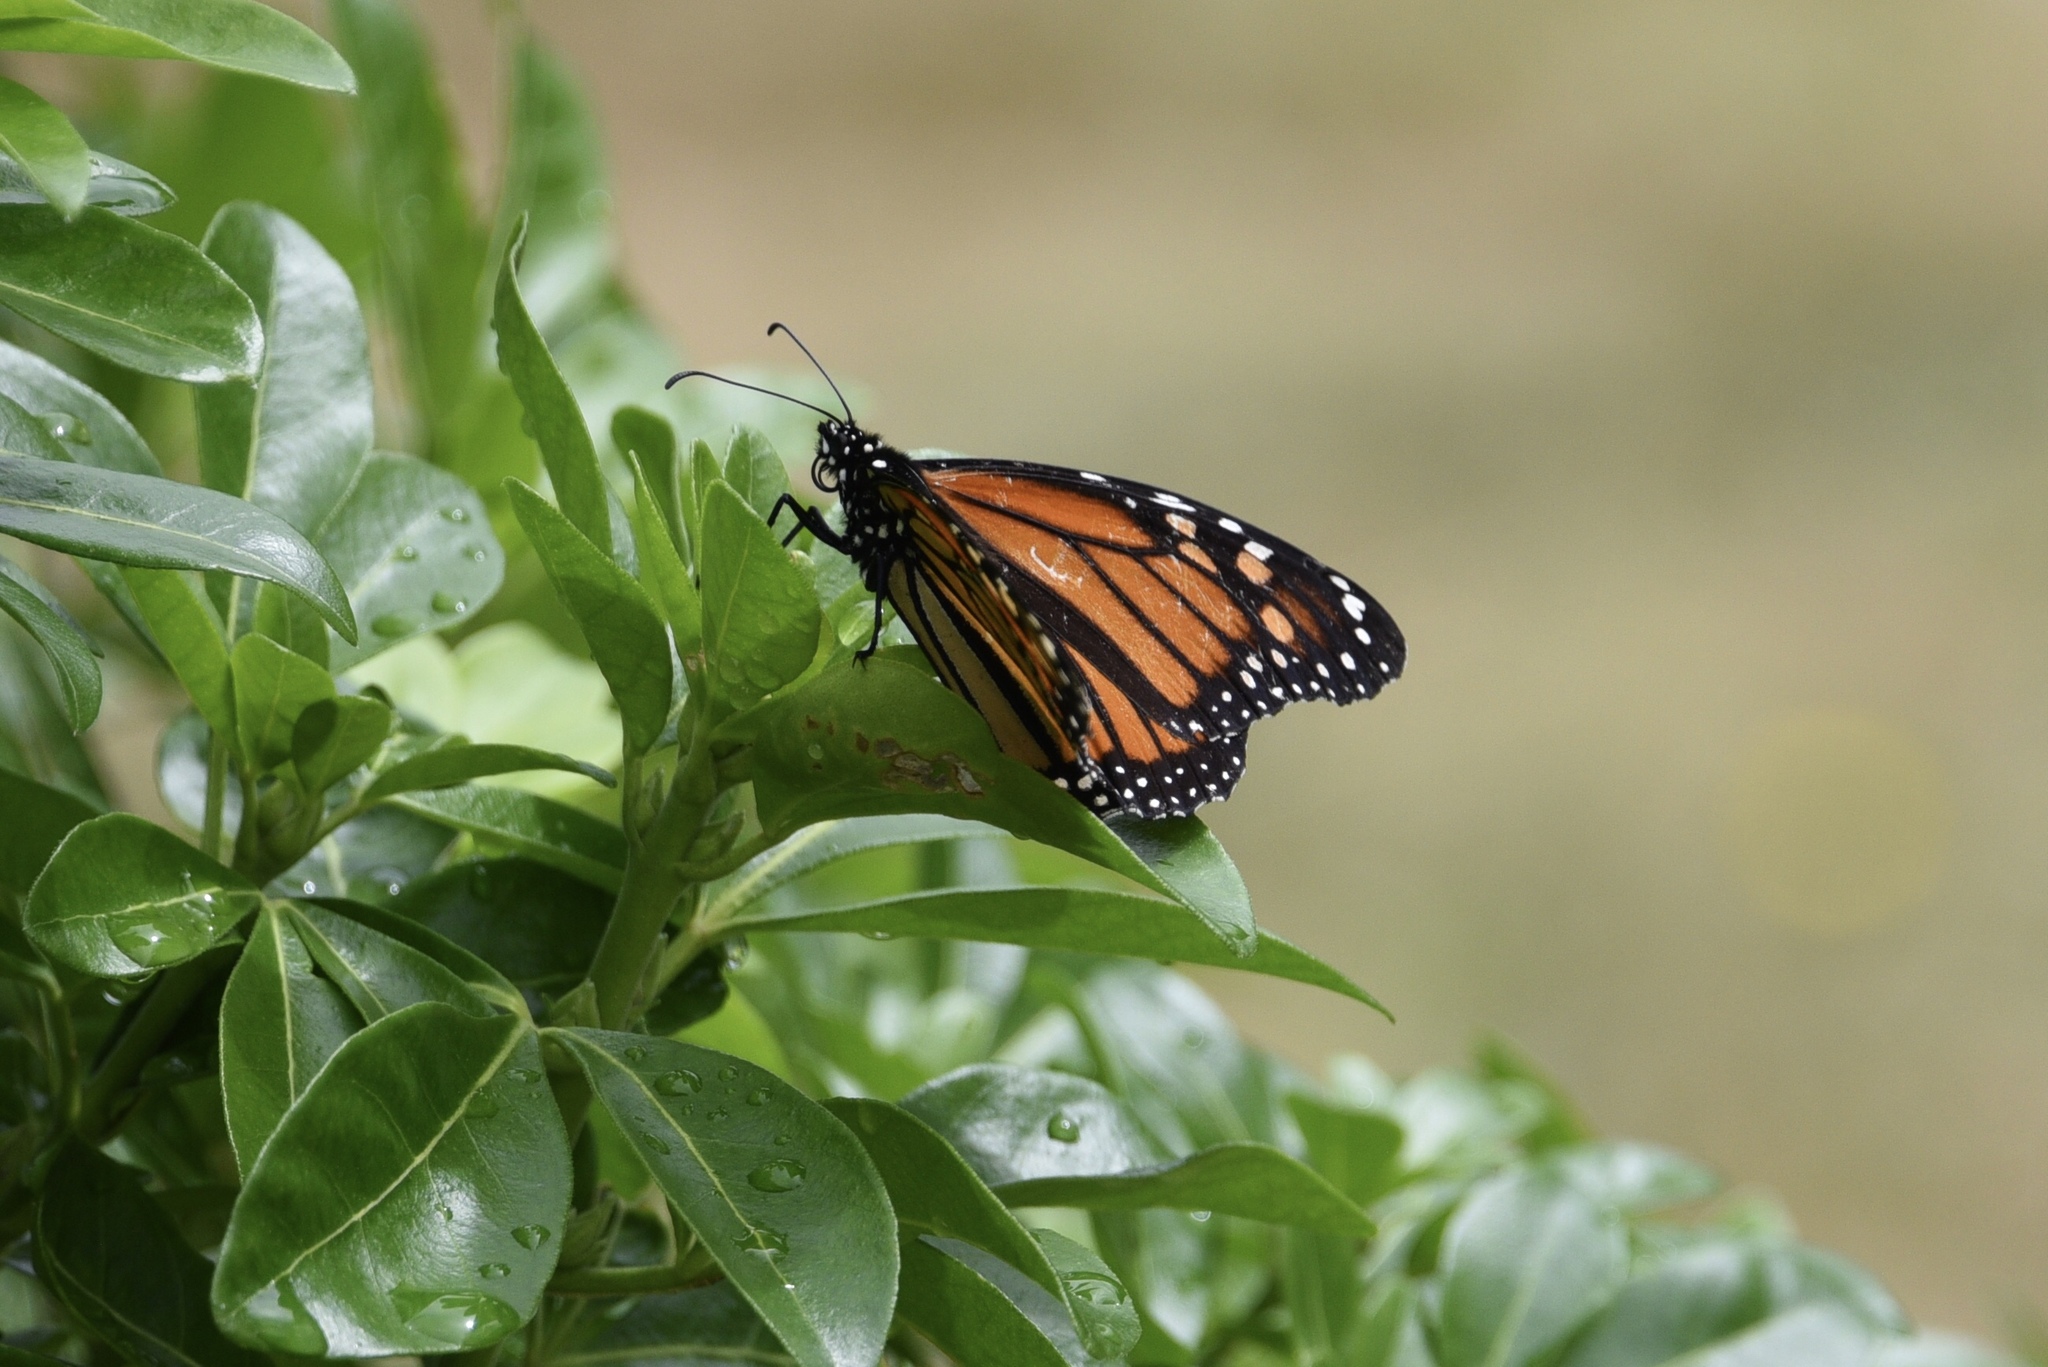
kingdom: Animalia
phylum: Arthropoda
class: Insecta
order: Lepidoptera
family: Nymphalidae
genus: Danaus
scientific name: Danaus plexippus
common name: Monarch
